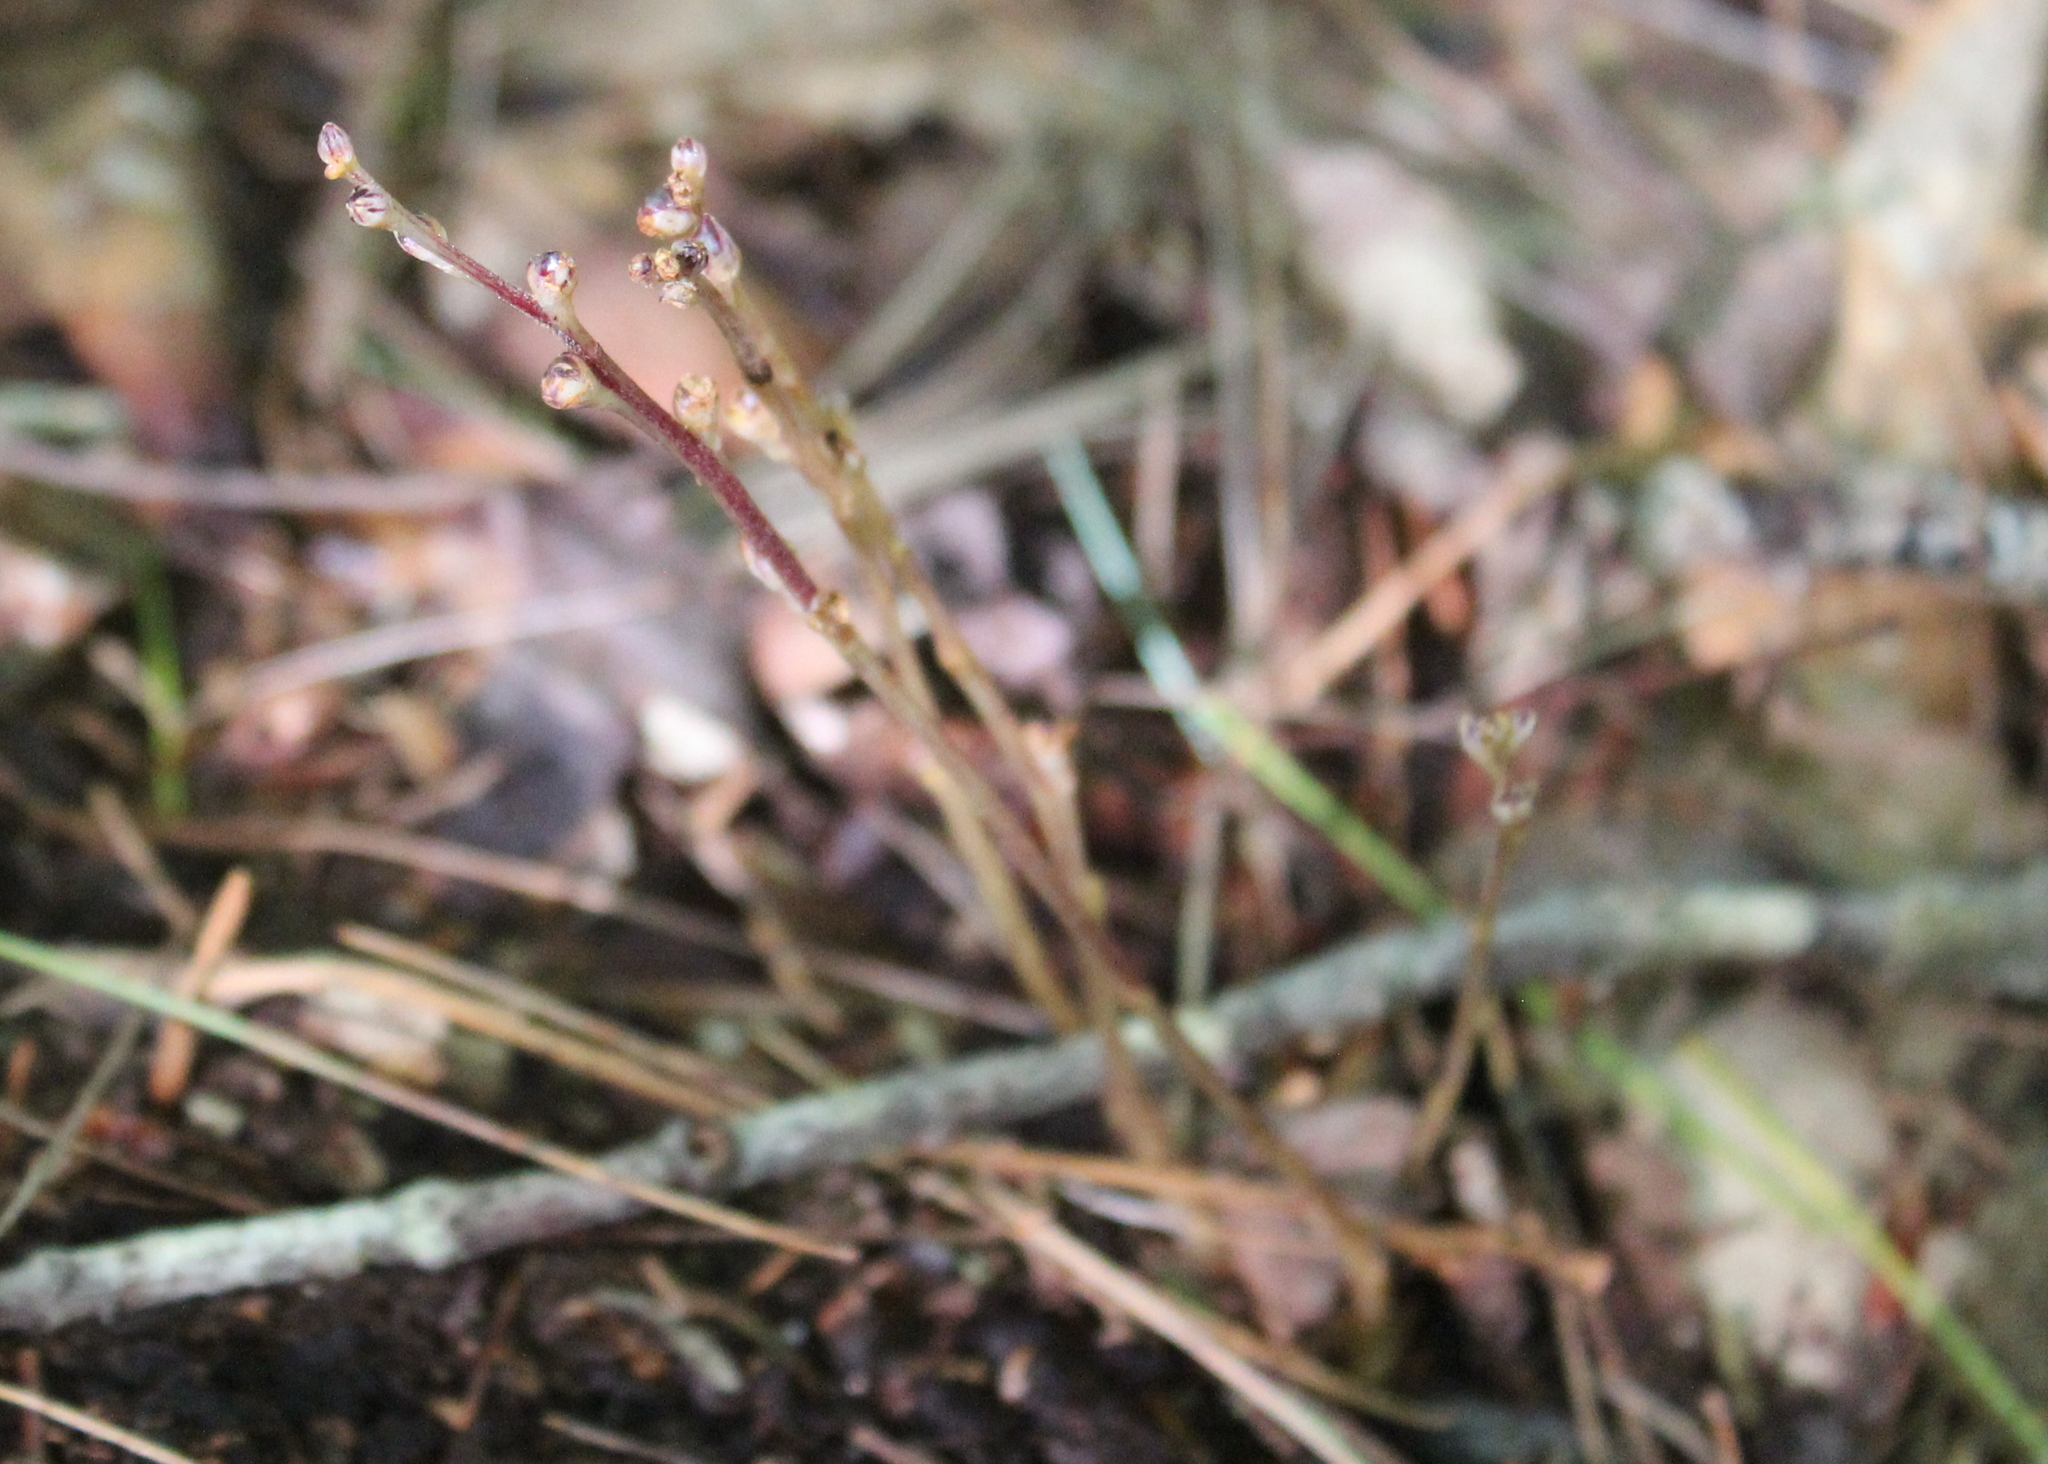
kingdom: Plantae
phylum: Tracheophyta
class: Magnoliopsida
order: Lamiales
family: Orobanchaceae
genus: Epifagus
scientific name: Epifagus virginiana
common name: Beechdrops
